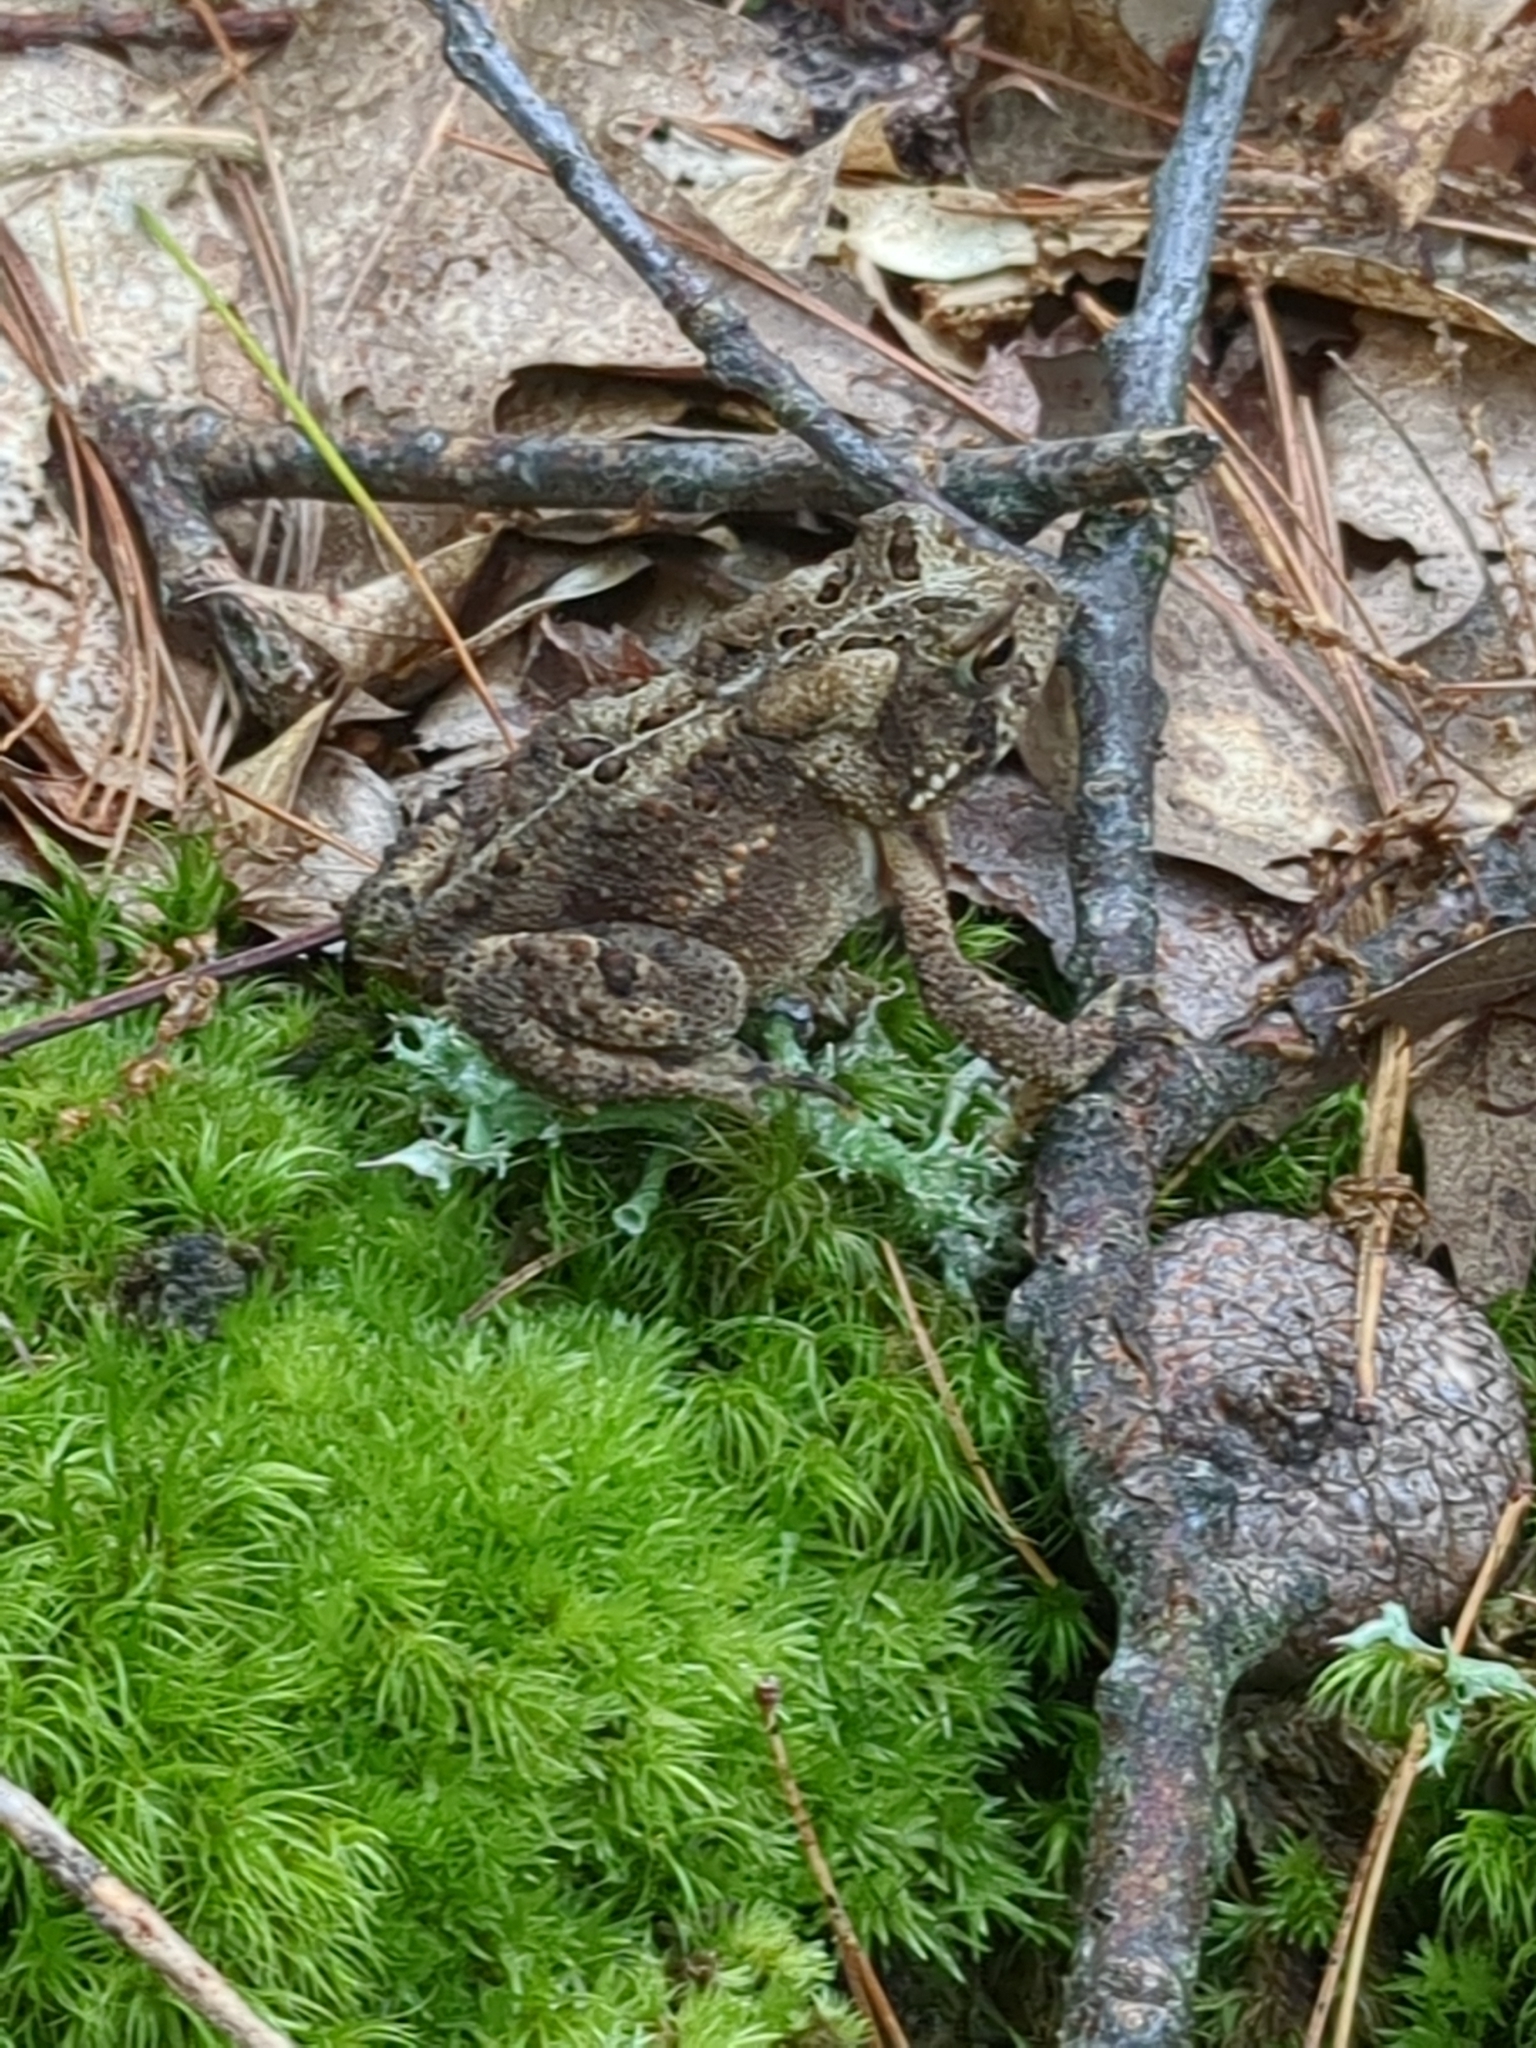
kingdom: Animalia
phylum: Chordata
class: Amphibia
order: Anura
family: Bufonidae
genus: Anaxyrus
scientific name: Anaxyrus americanus
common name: American toad
